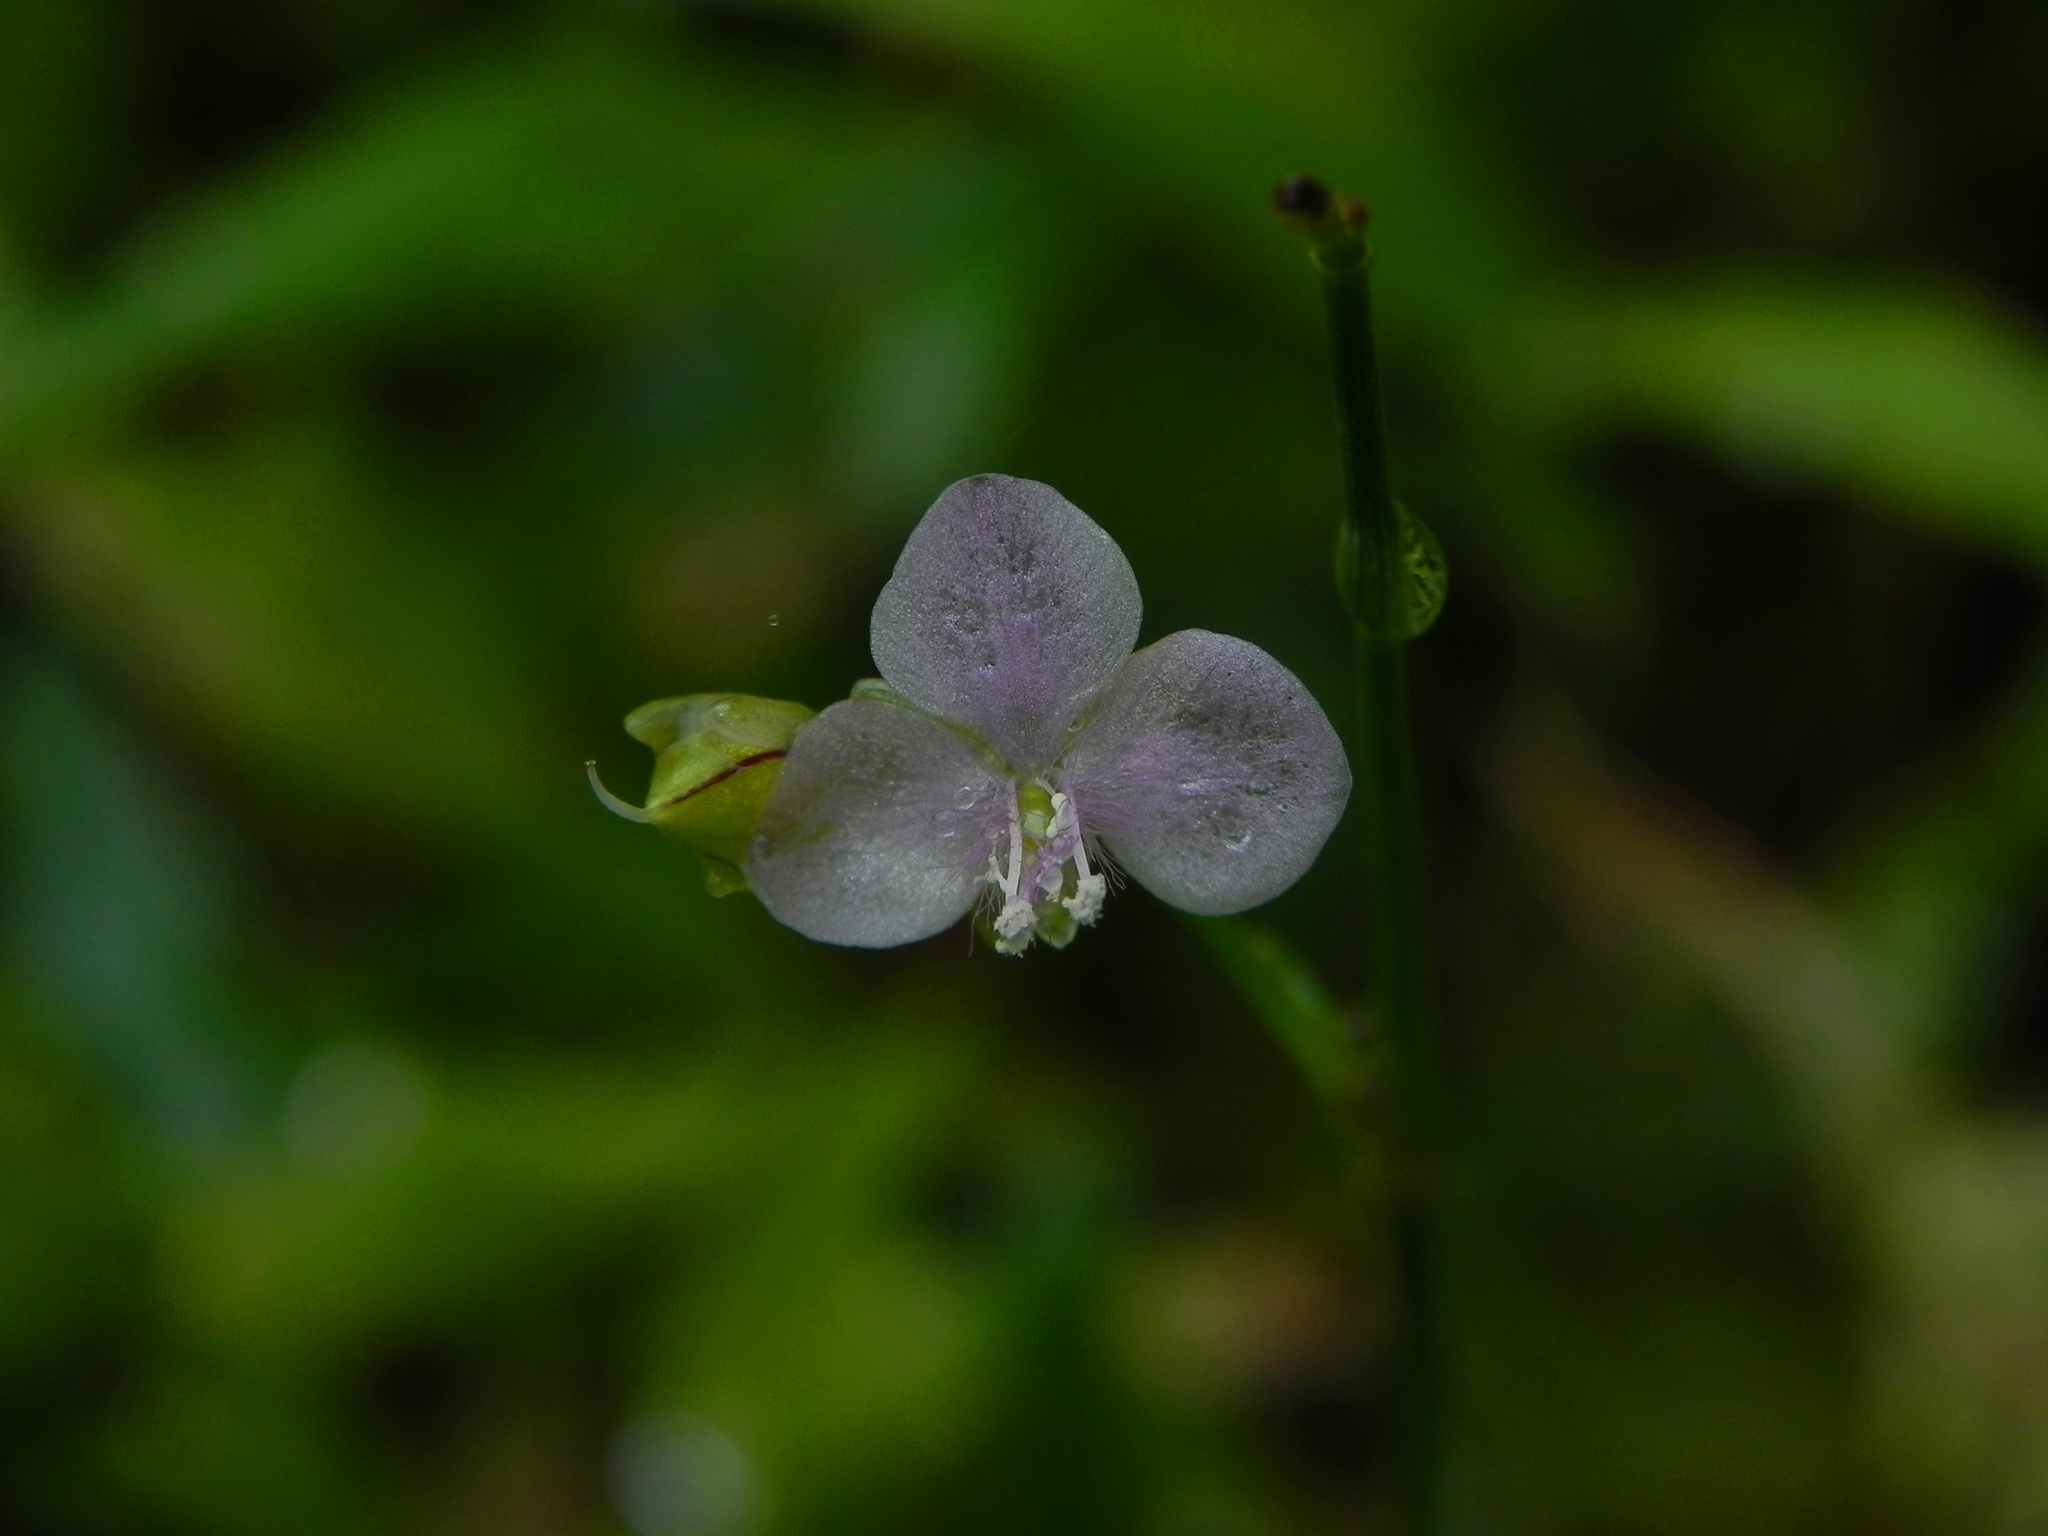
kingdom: Plantae
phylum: Tracheophyta
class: Liliopsida
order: Commelinales
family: Commelinaceae
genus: Murdannia
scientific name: Murdannia nudiflora
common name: Nakedstem dewflower
